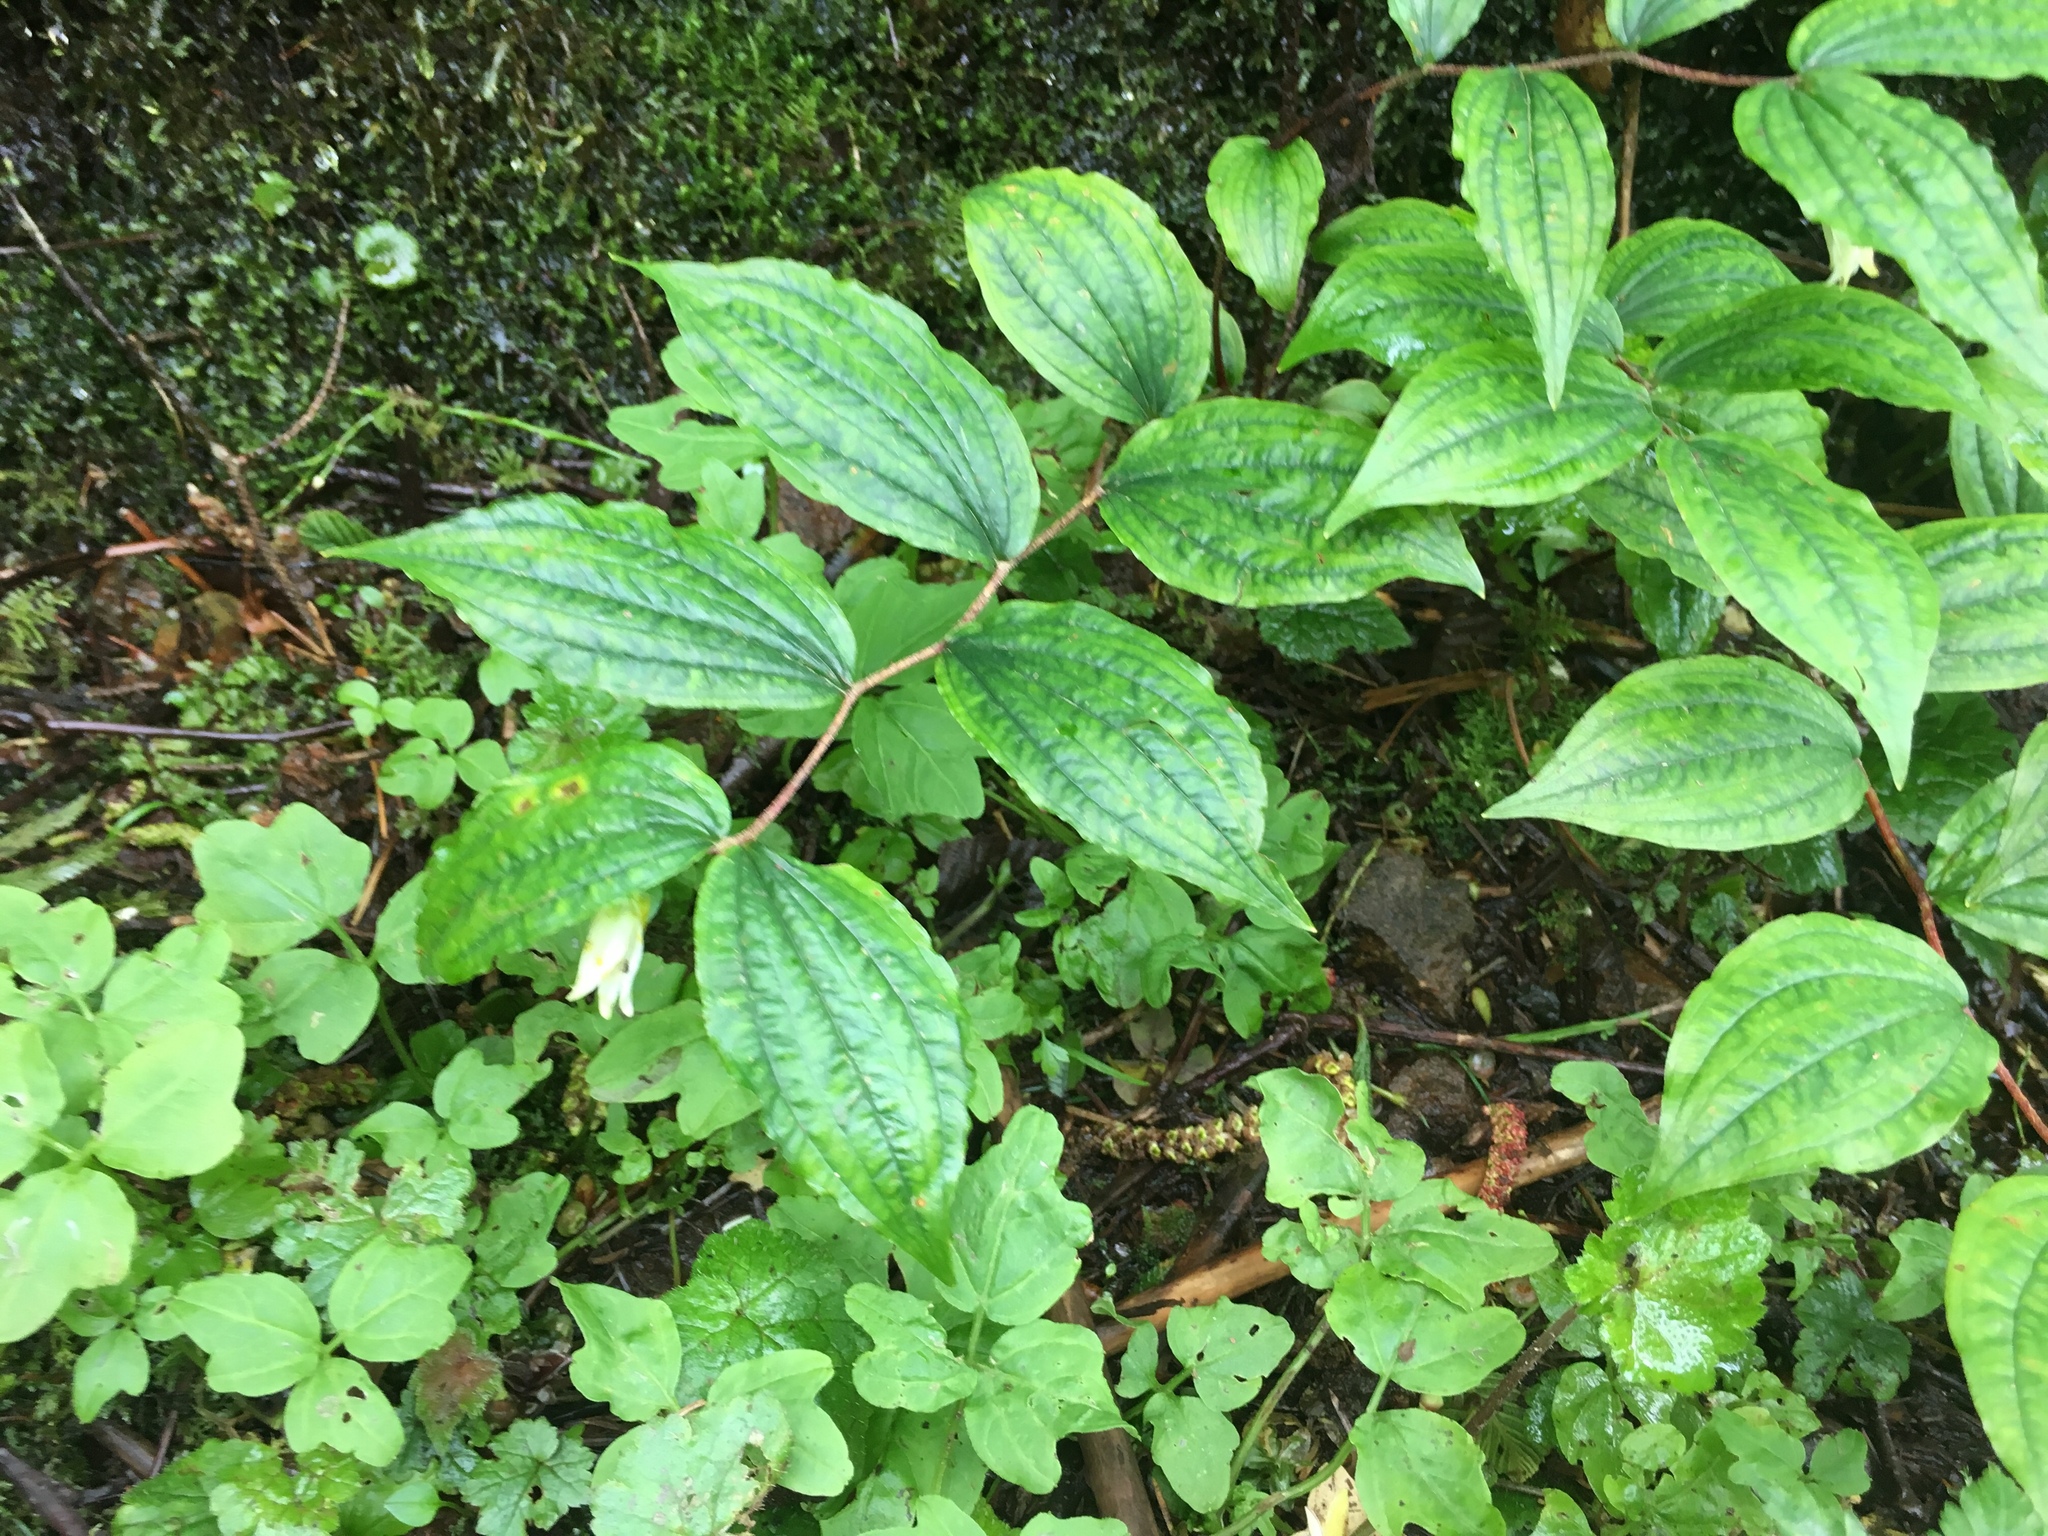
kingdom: Plantae
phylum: Tracheophyta
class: Liliopsida
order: Liliales
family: Liliaceae
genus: Prosartes
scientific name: Prosartes smithii
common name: Fairy-lantern
